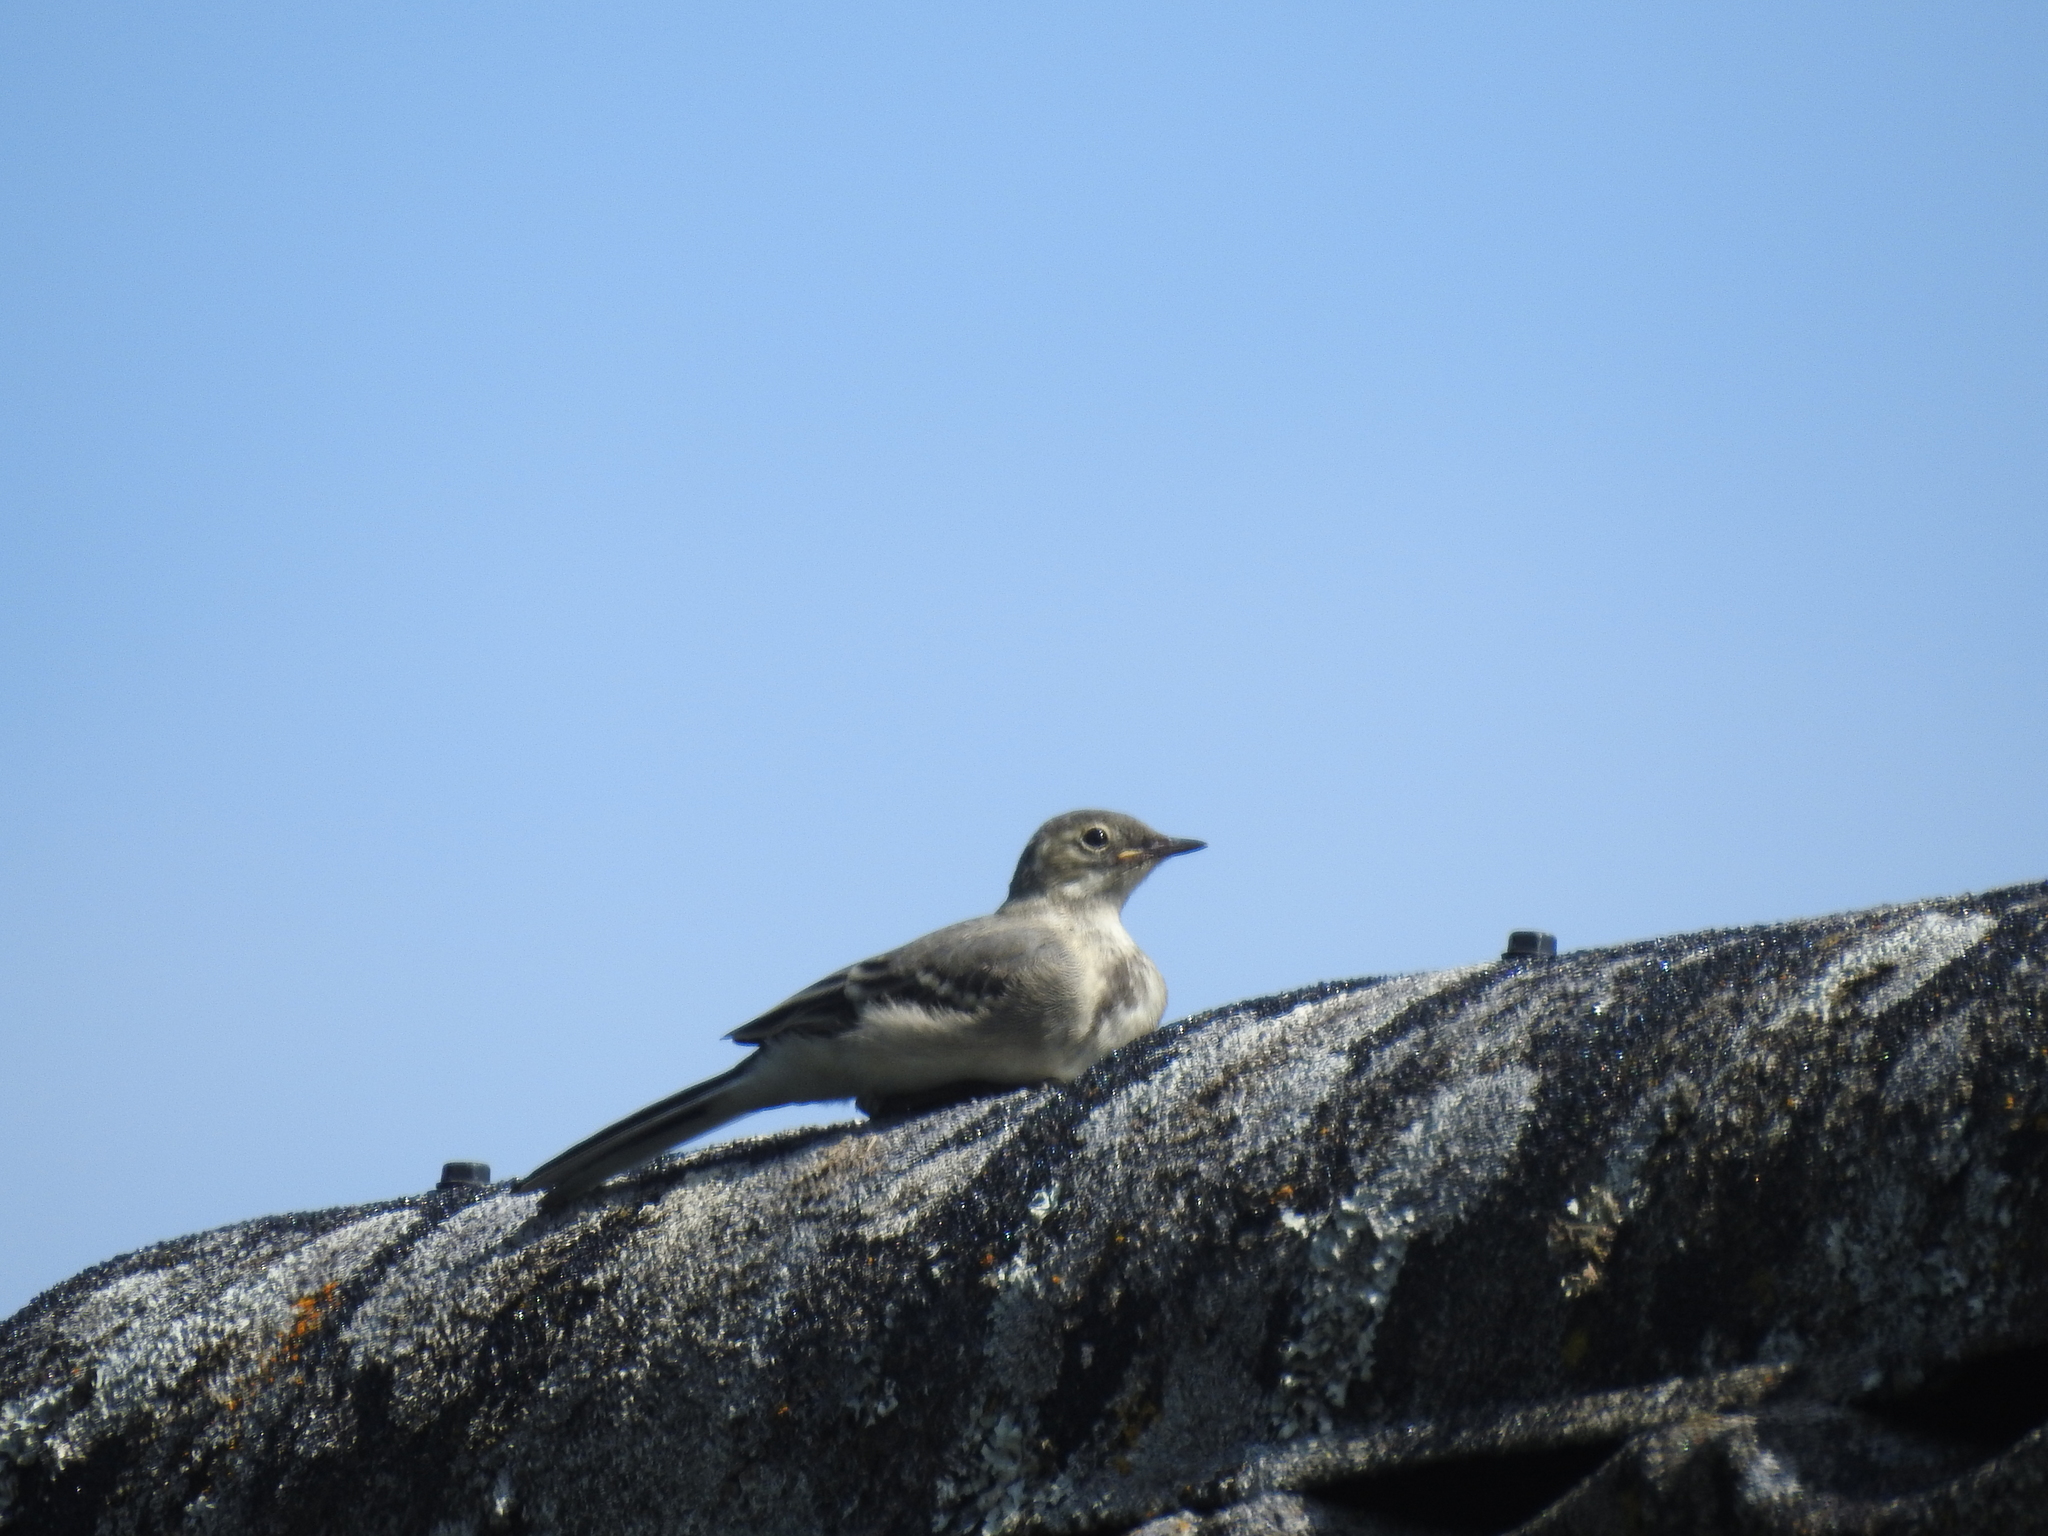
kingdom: Animalia
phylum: Chordata
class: Aves
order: Passeriformes
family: Motacillidae
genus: Motacilla
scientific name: Motacilla alba
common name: White wagtail
